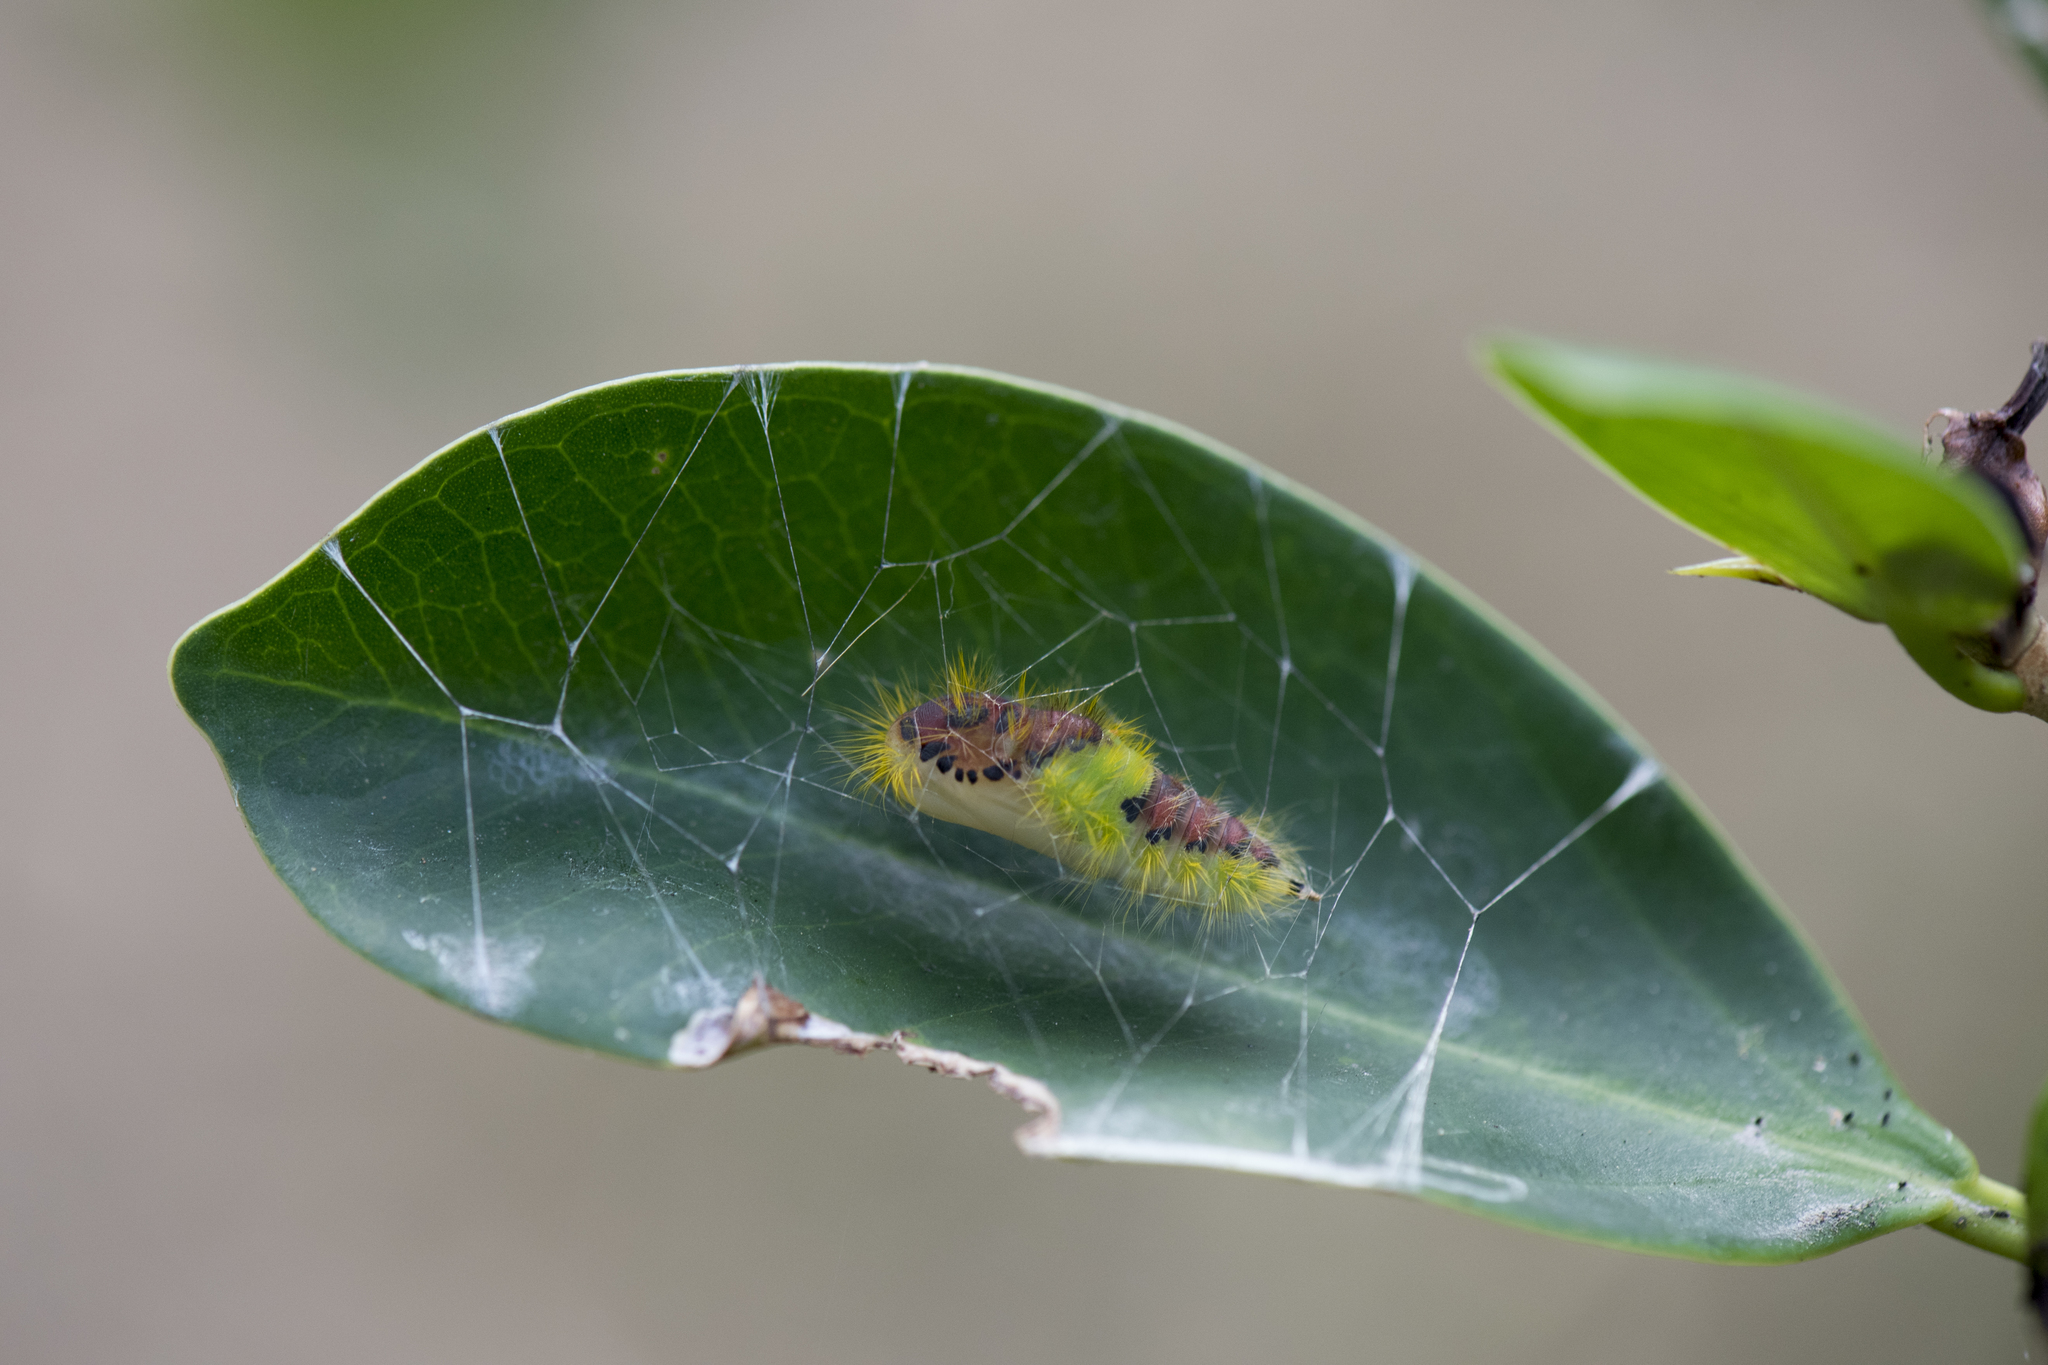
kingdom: Animalia
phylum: Arthropoda
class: Insecta
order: Lepidoptera
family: Erebidae
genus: Perina
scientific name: Perina nuda
